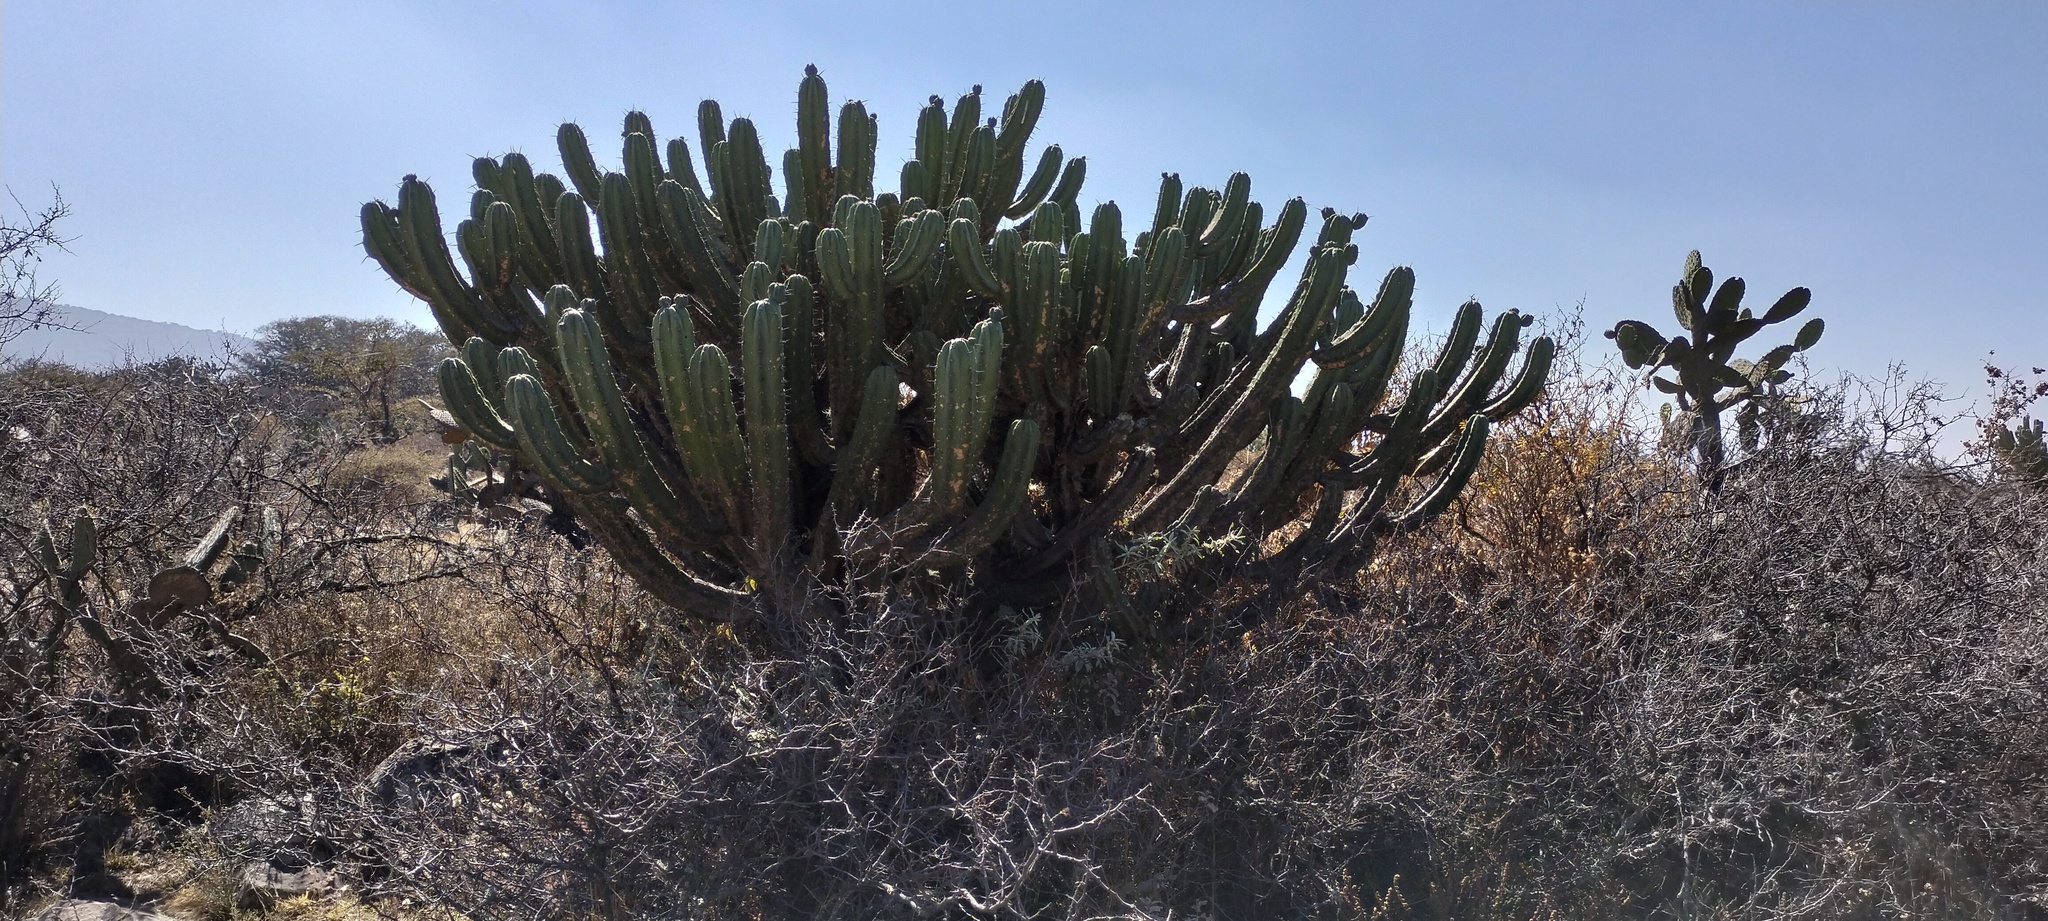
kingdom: Plantae
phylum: Tracheophyta
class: Magnoliopsida
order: Caryophyllales
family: Cactaceae
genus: Myrtillocactus
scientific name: Myrtillocactus geometrizans
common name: Bilberry cactus
